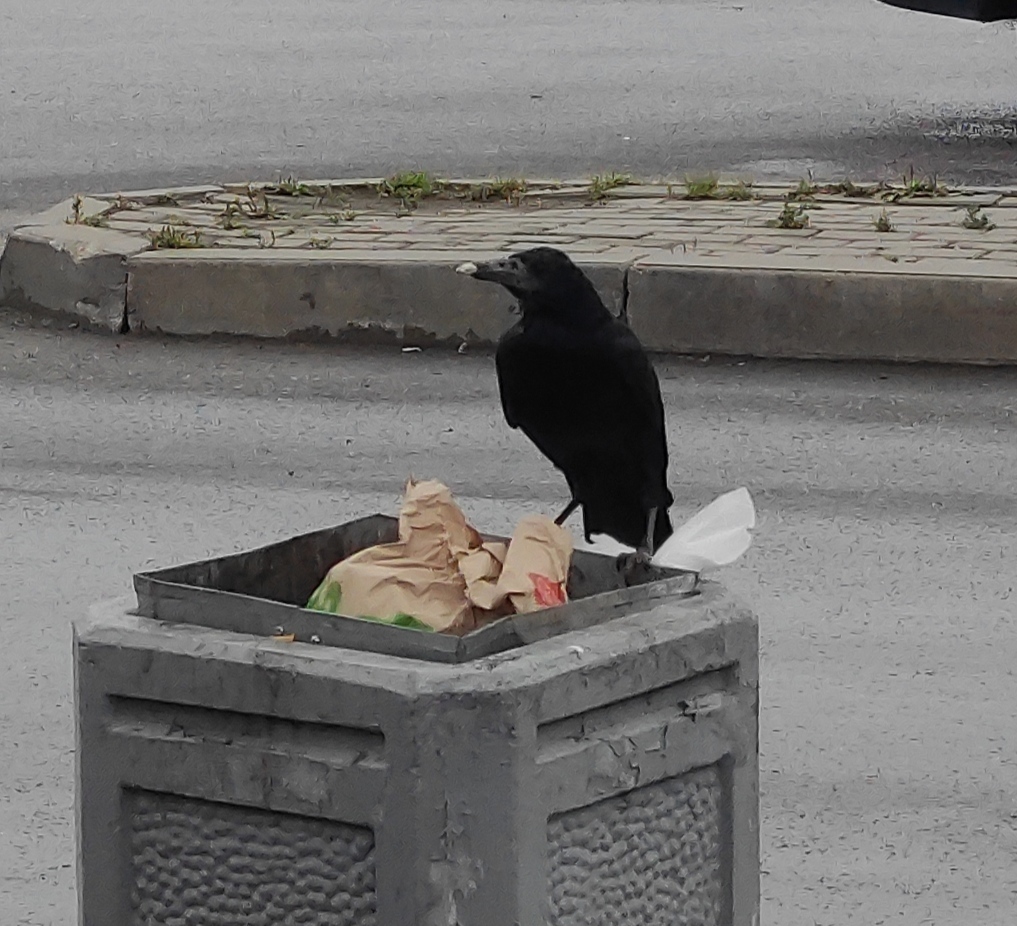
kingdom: Animalia
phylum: Chordata
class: Aves
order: Passeriformes
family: Corvidae
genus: Corvus
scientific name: Corvus frugilegus
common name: Rook
